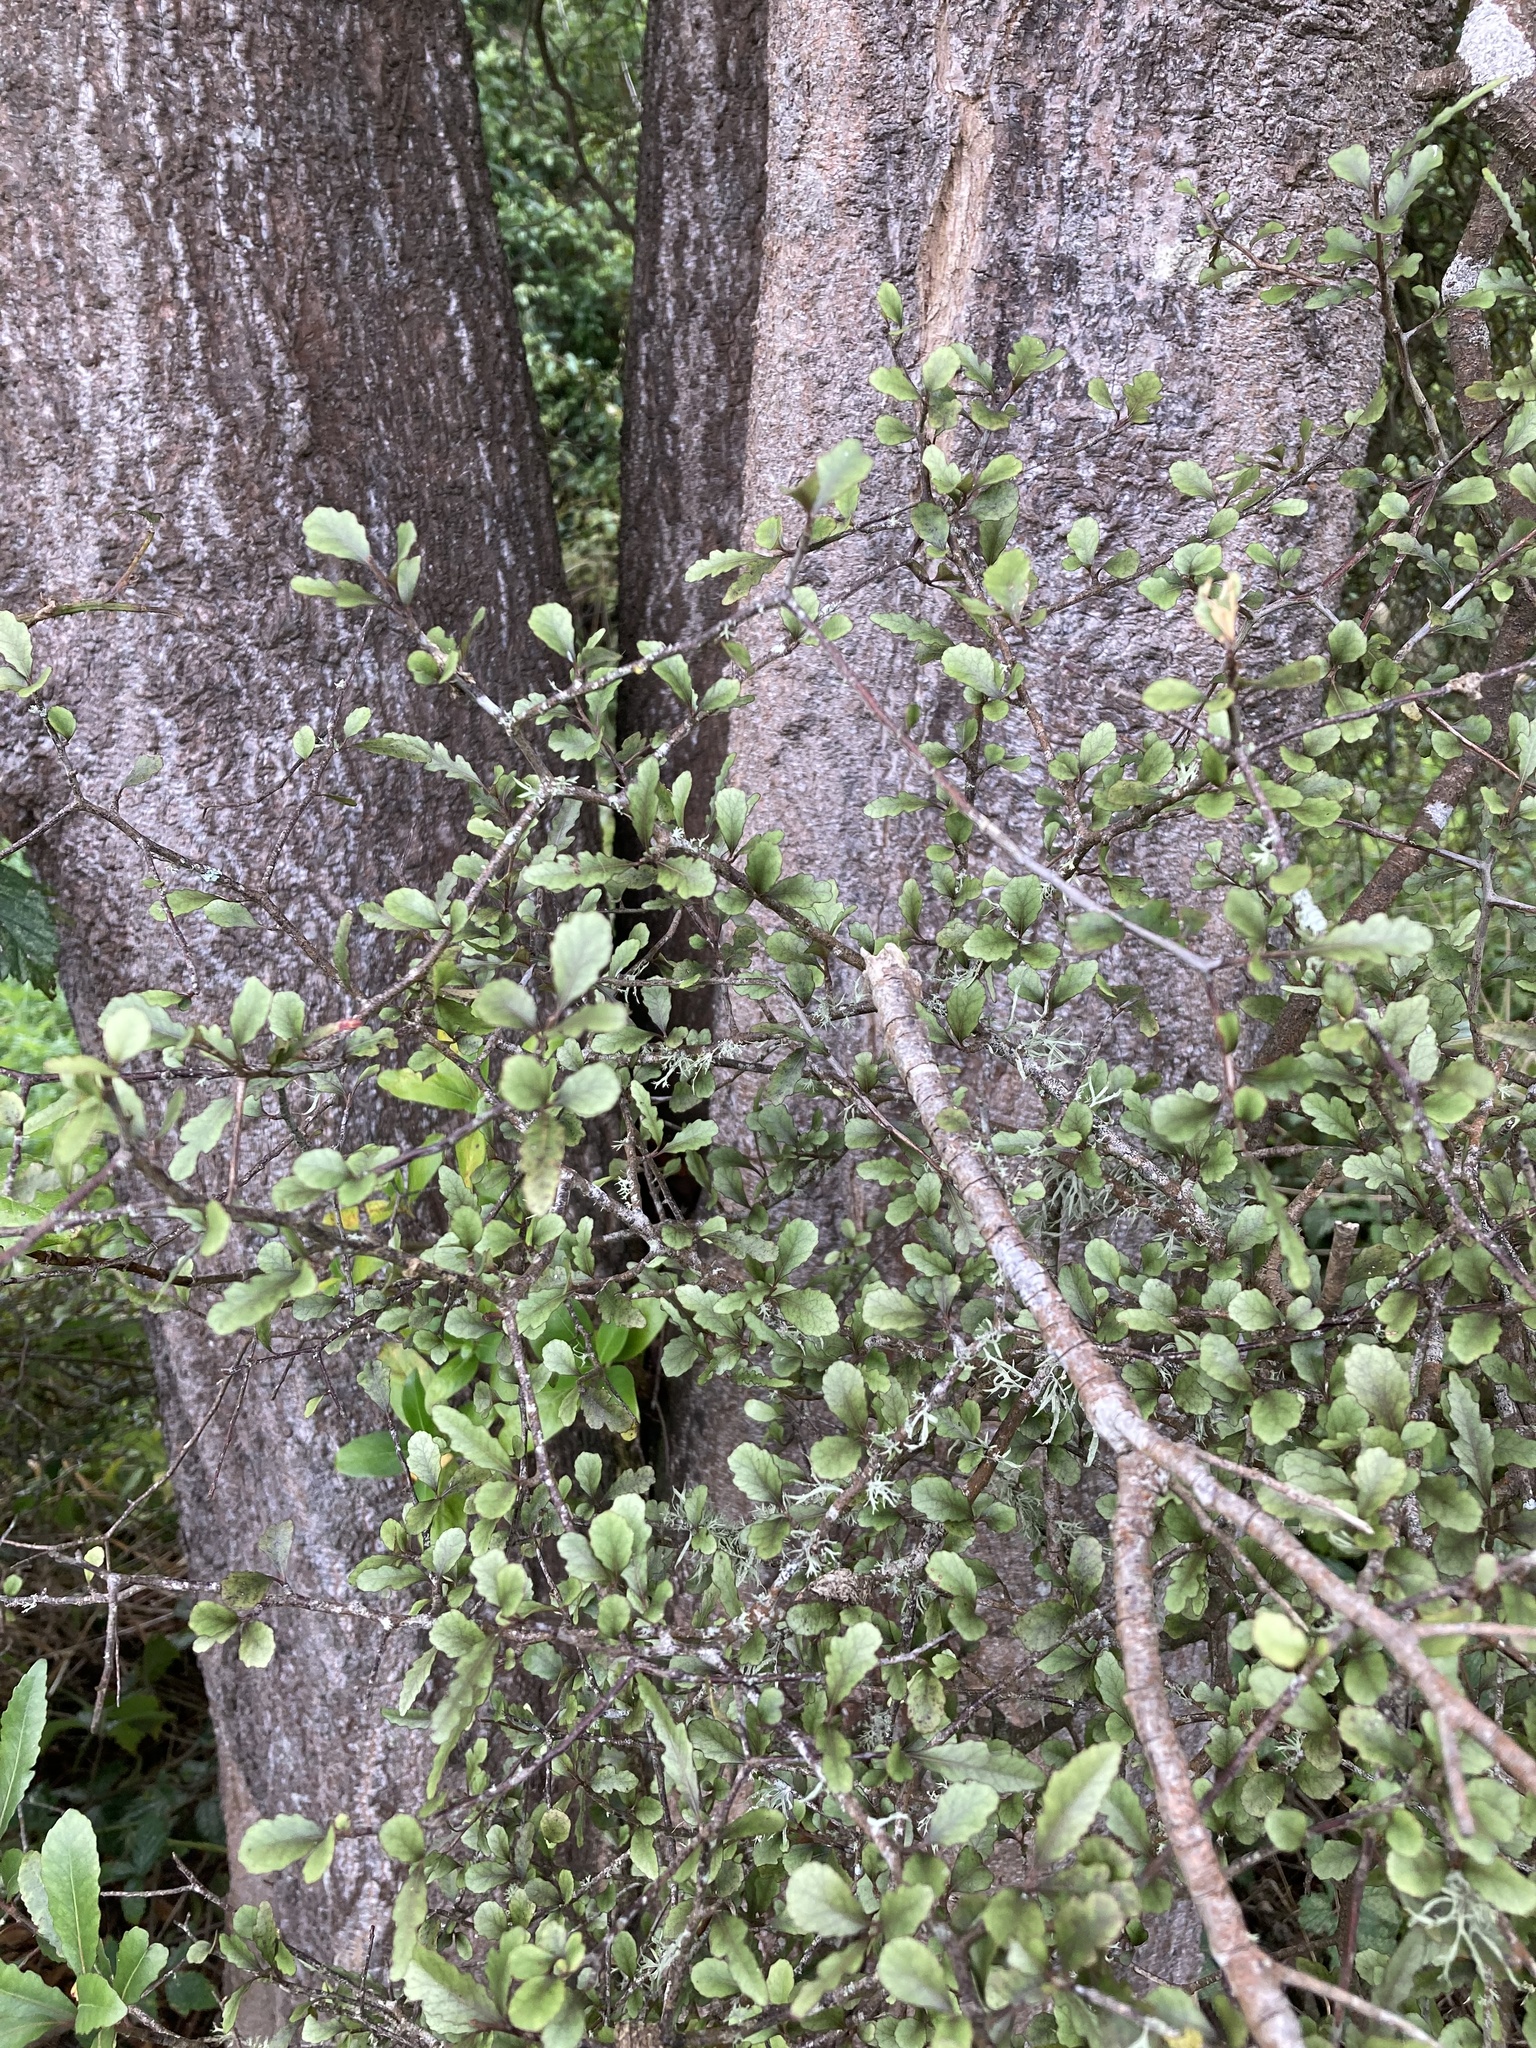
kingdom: Plantae
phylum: Tracheophyta
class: Magnoliopsida
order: Oxalidales
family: Elaeocarpaceae
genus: Elaeocarpus
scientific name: Elaeocarpus hookerianus
